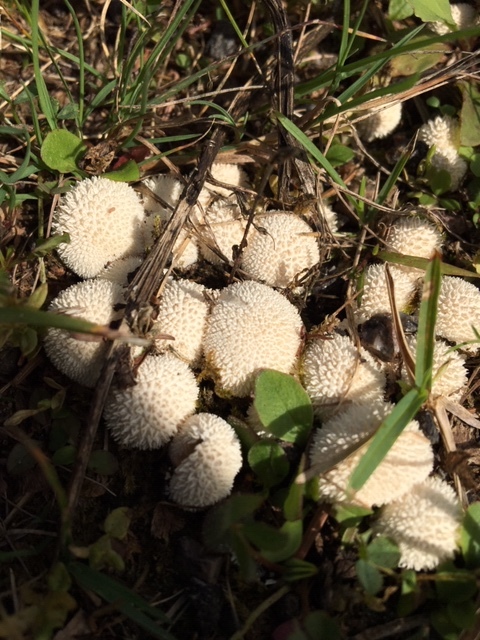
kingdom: Fungi
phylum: Basidiomycota
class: Agaricomycetes
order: Agaricales
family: Lycoperdaceae
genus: Lycoperdon
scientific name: Lycoperdon curtisii
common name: Curtis's puffball
